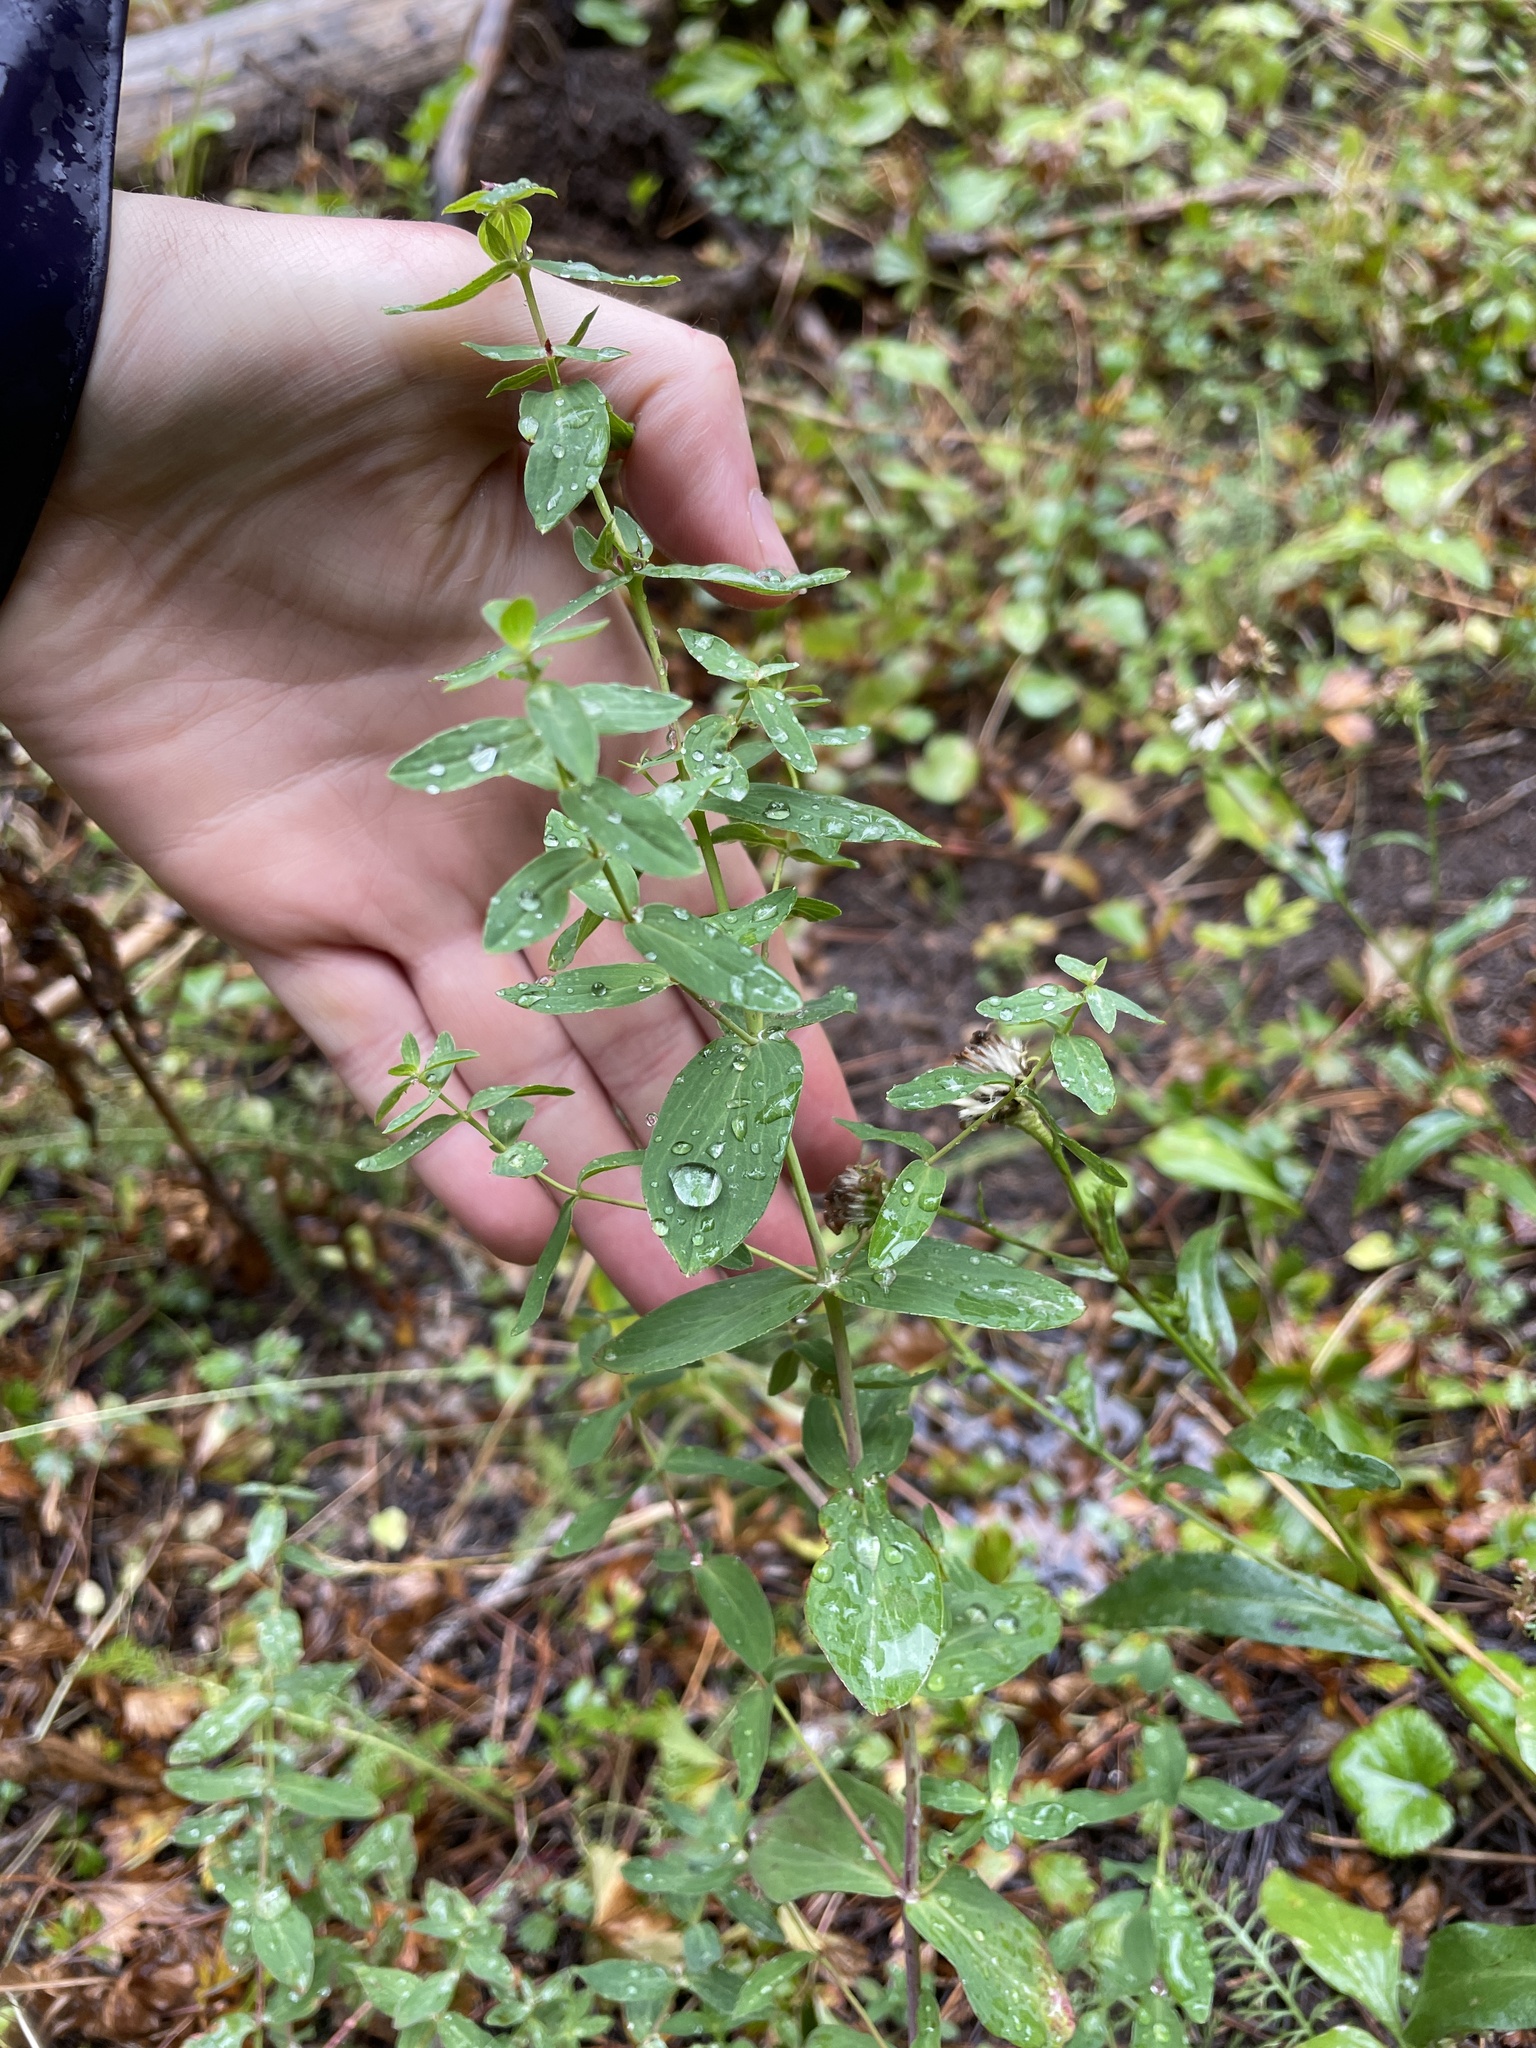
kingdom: Plantae
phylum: Tracheophyta
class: Magnoliopsida
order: Malpighiales
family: Hypericaceae
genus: Hypericum
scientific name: Hypericum scouleri
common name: Scouler's st. john's-wort
